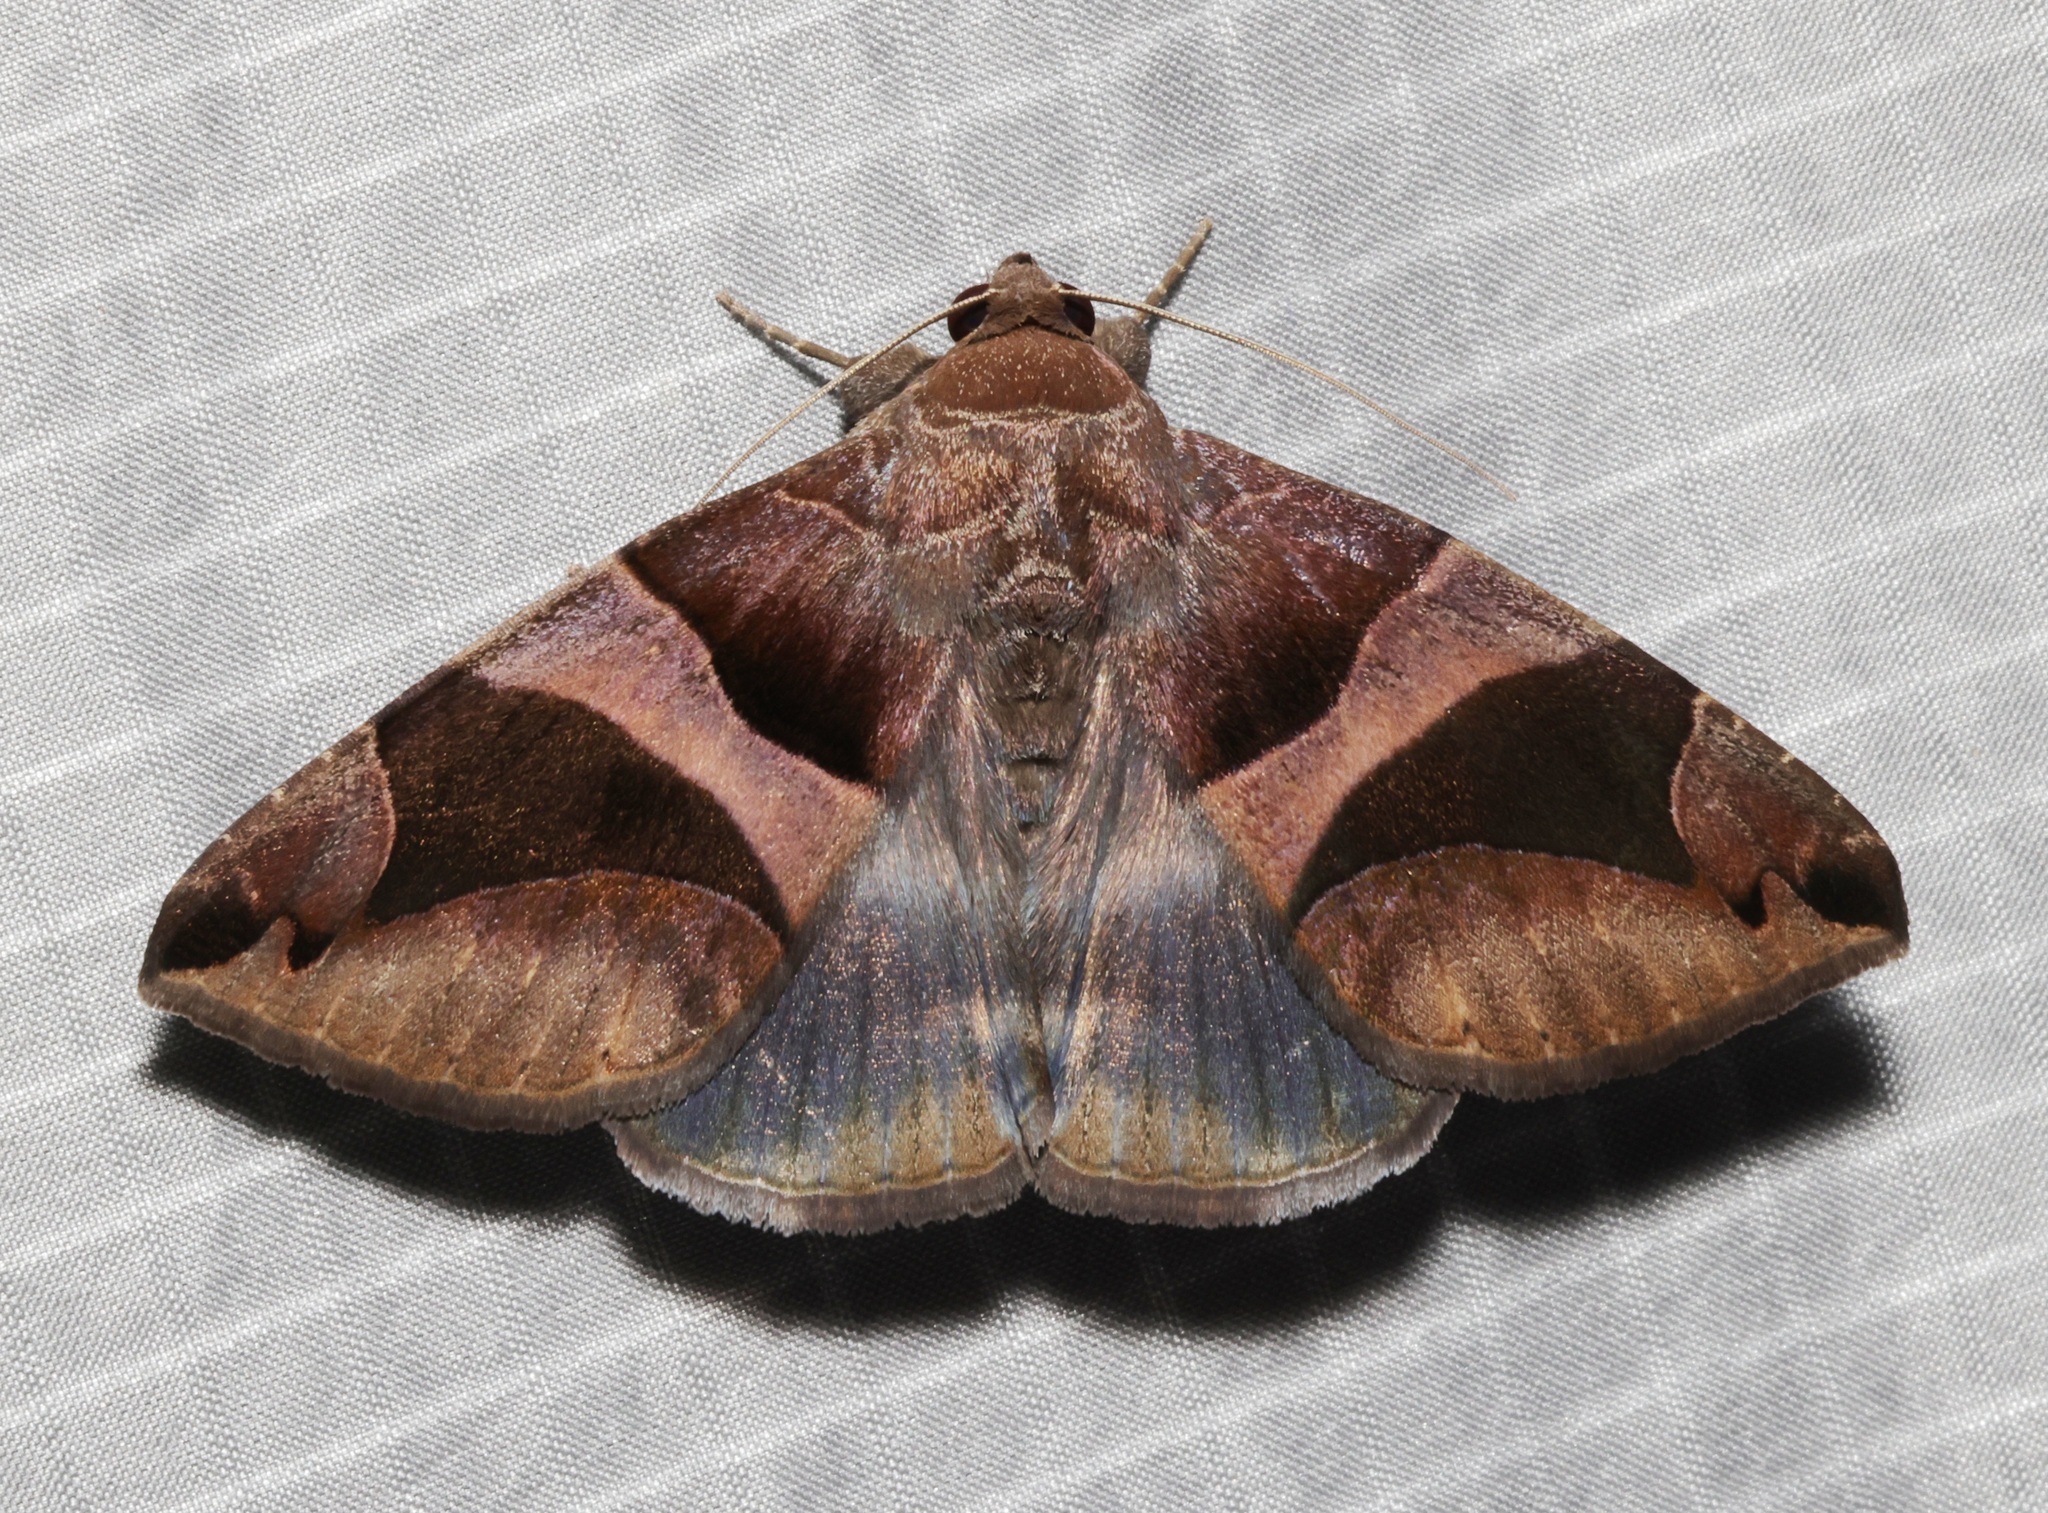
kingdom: Animalia
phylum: Arthropoda
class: Insecta
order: Lepidoptera
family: Erebidae
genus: Bastilla
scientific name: Bastilla arcuata
